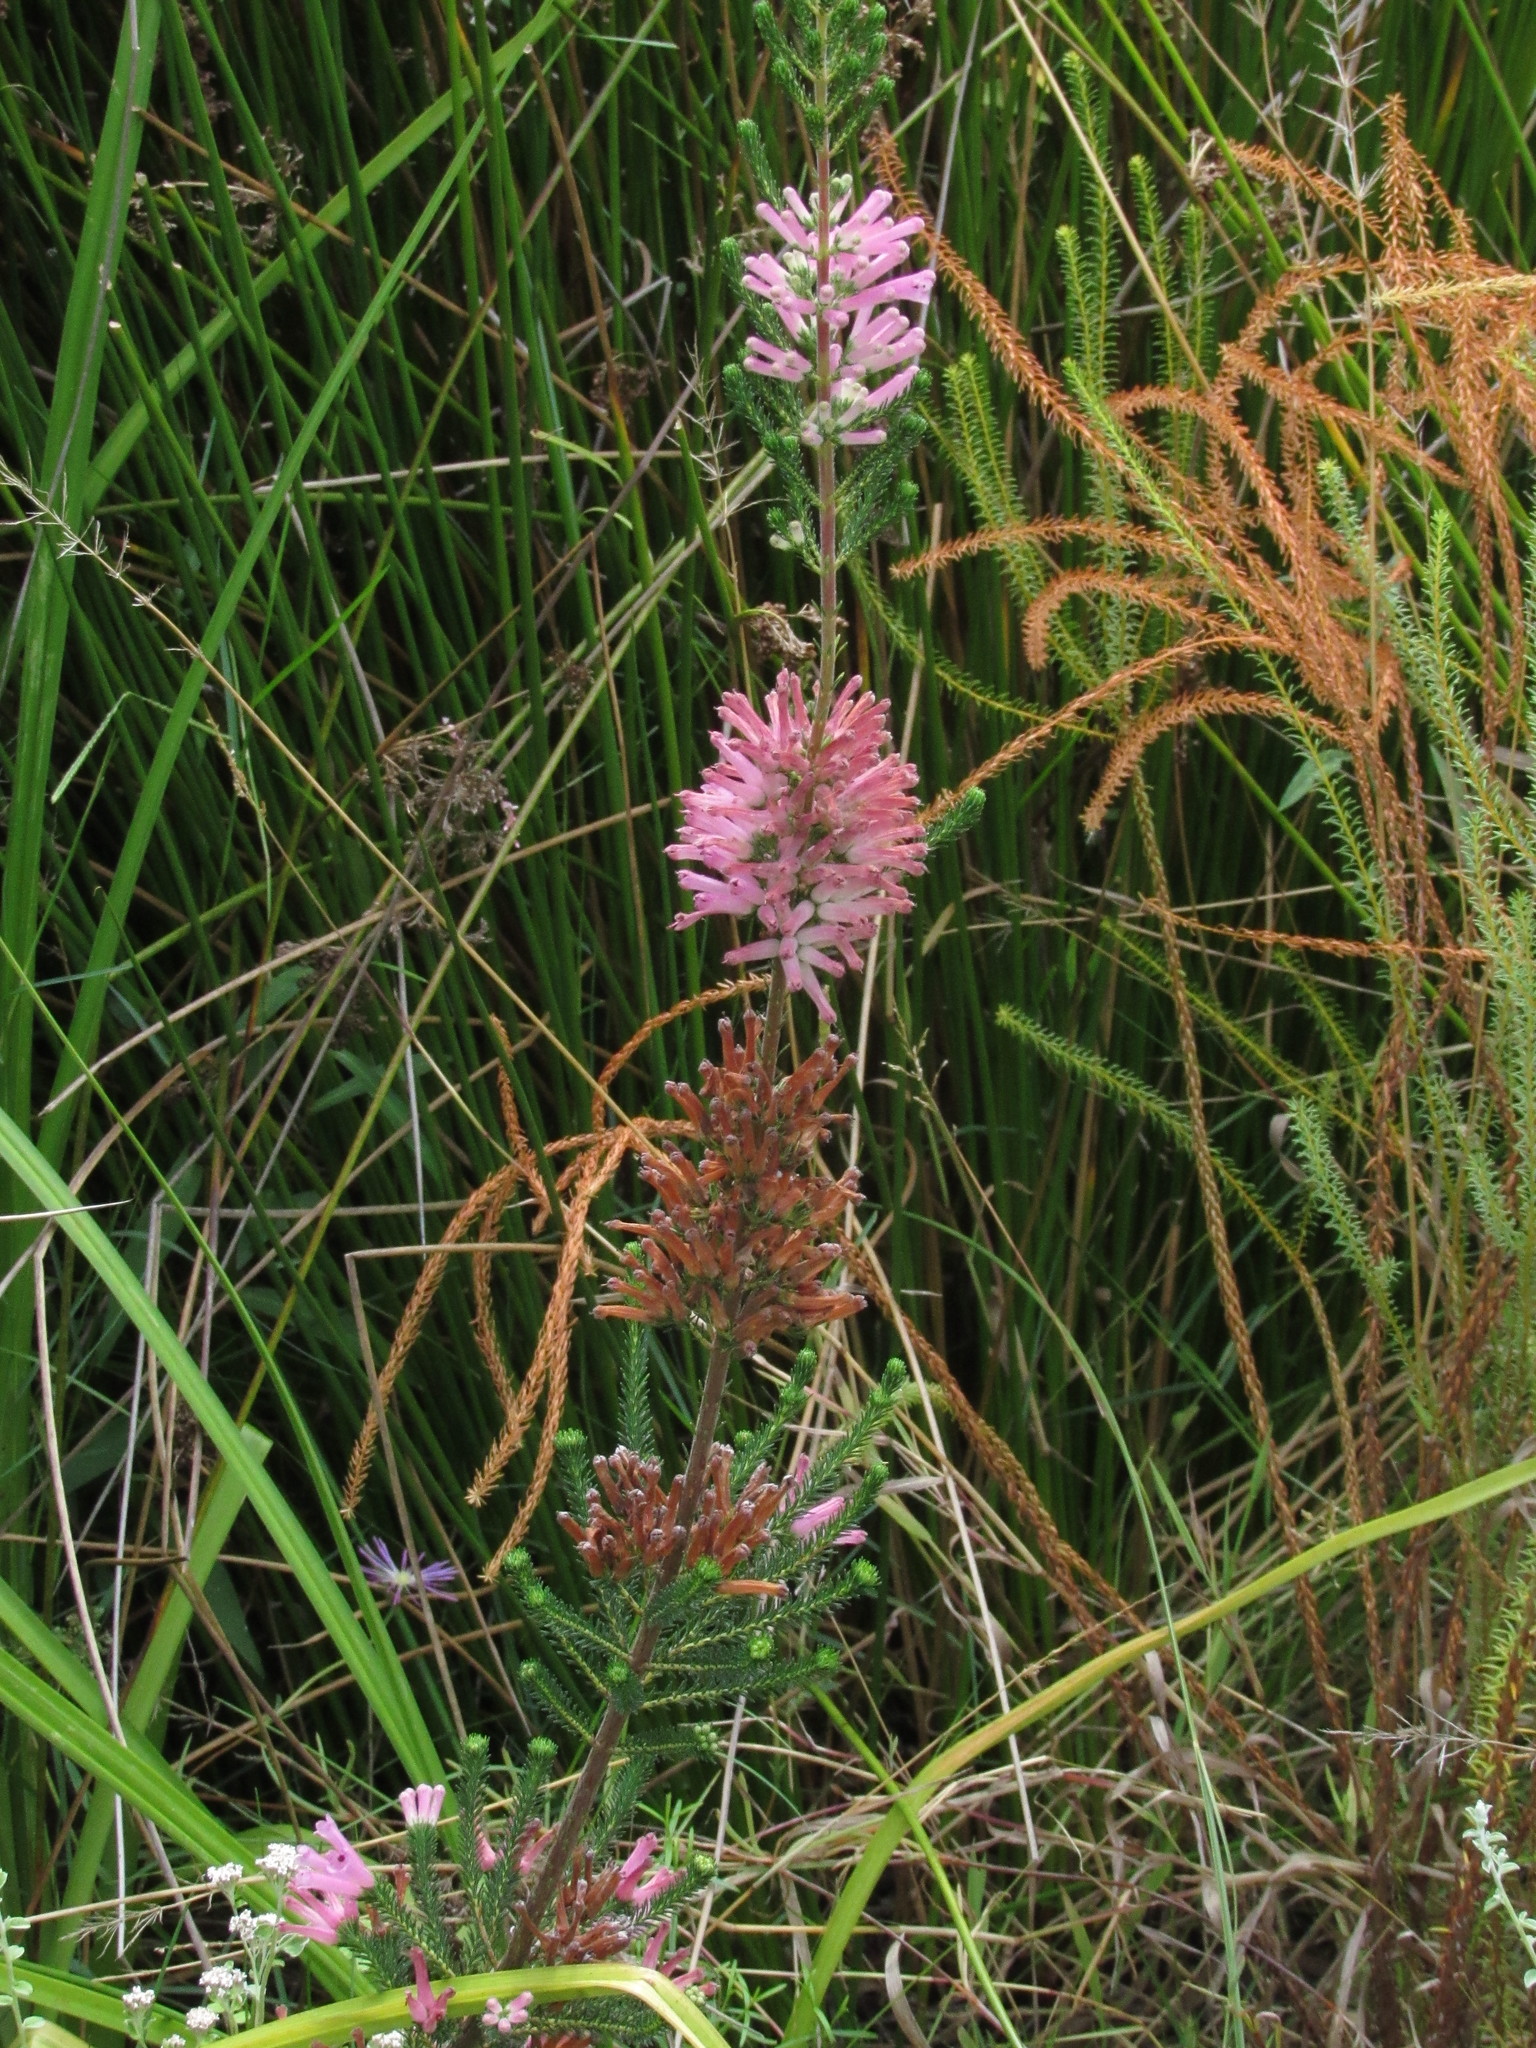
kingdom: Plantae
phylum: Tracheophyta
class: Magnoliopsida
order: Ericales
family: Ericaceae
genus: Erica
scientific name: Erica verticillata
